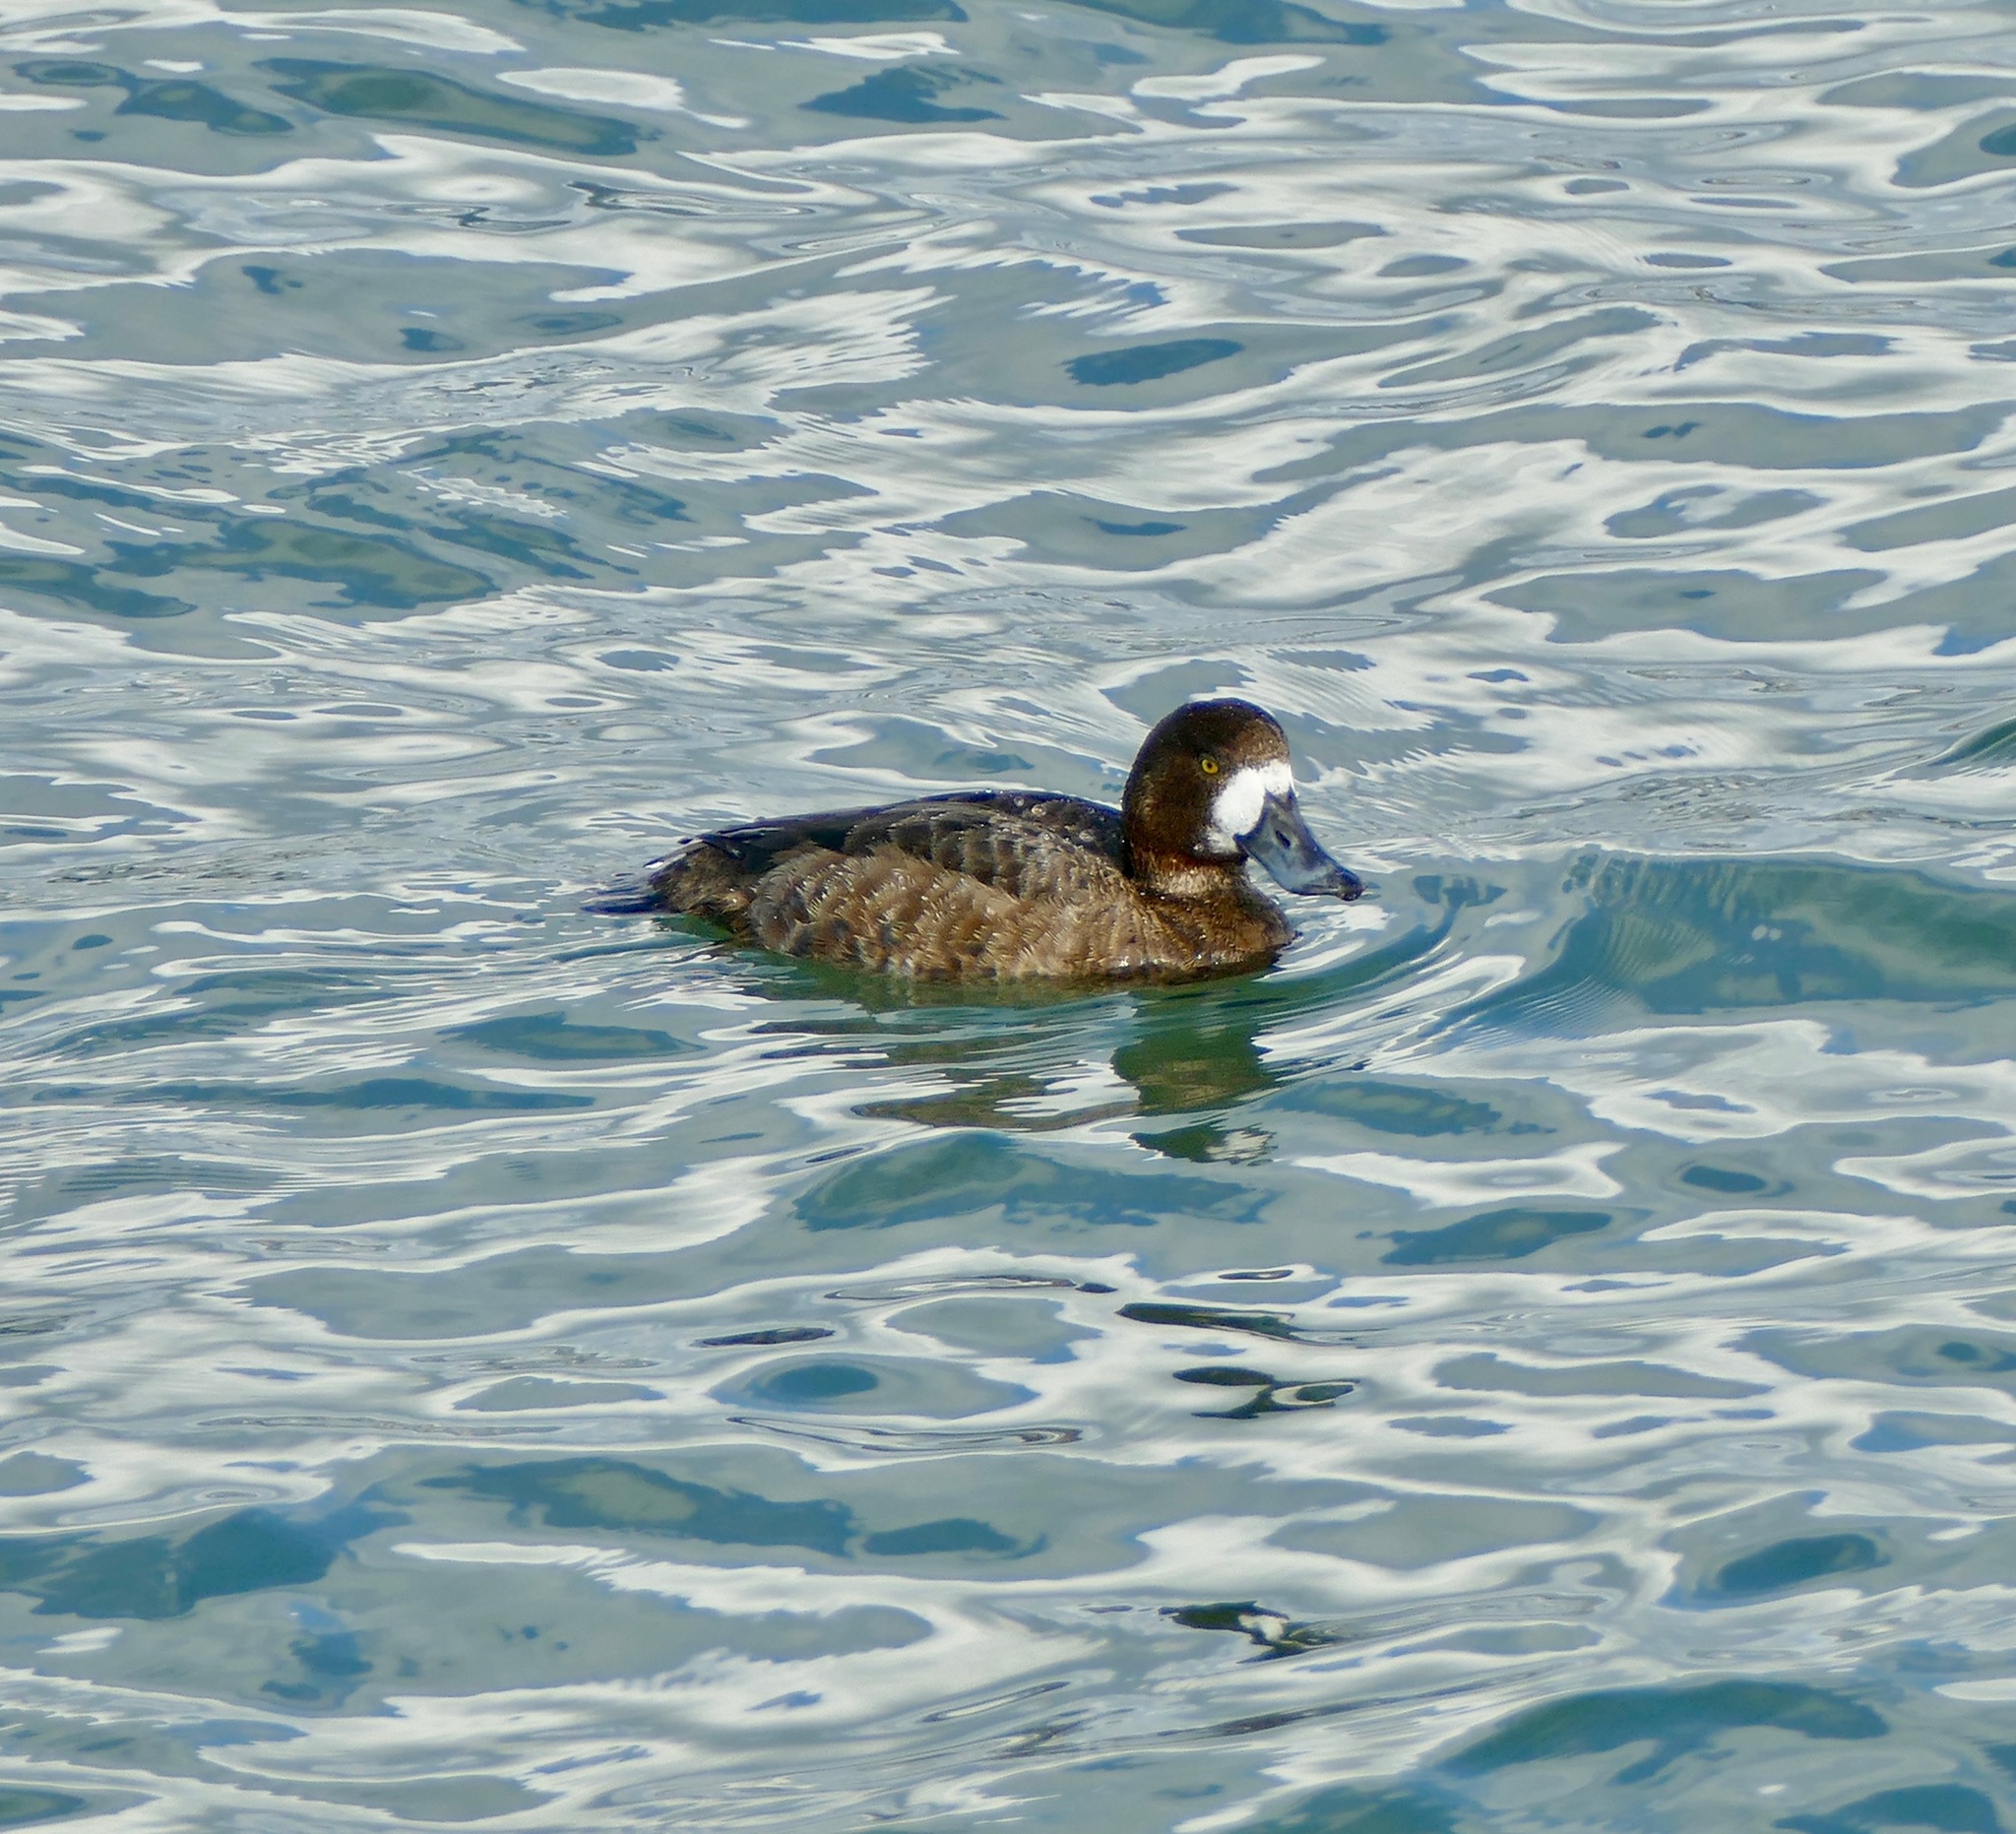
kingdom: Animalia
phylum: Chordata
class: Aves
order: Anseriformes
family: Anatidae
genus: Aythya
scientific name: Aythya marila
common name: Greater scaup
